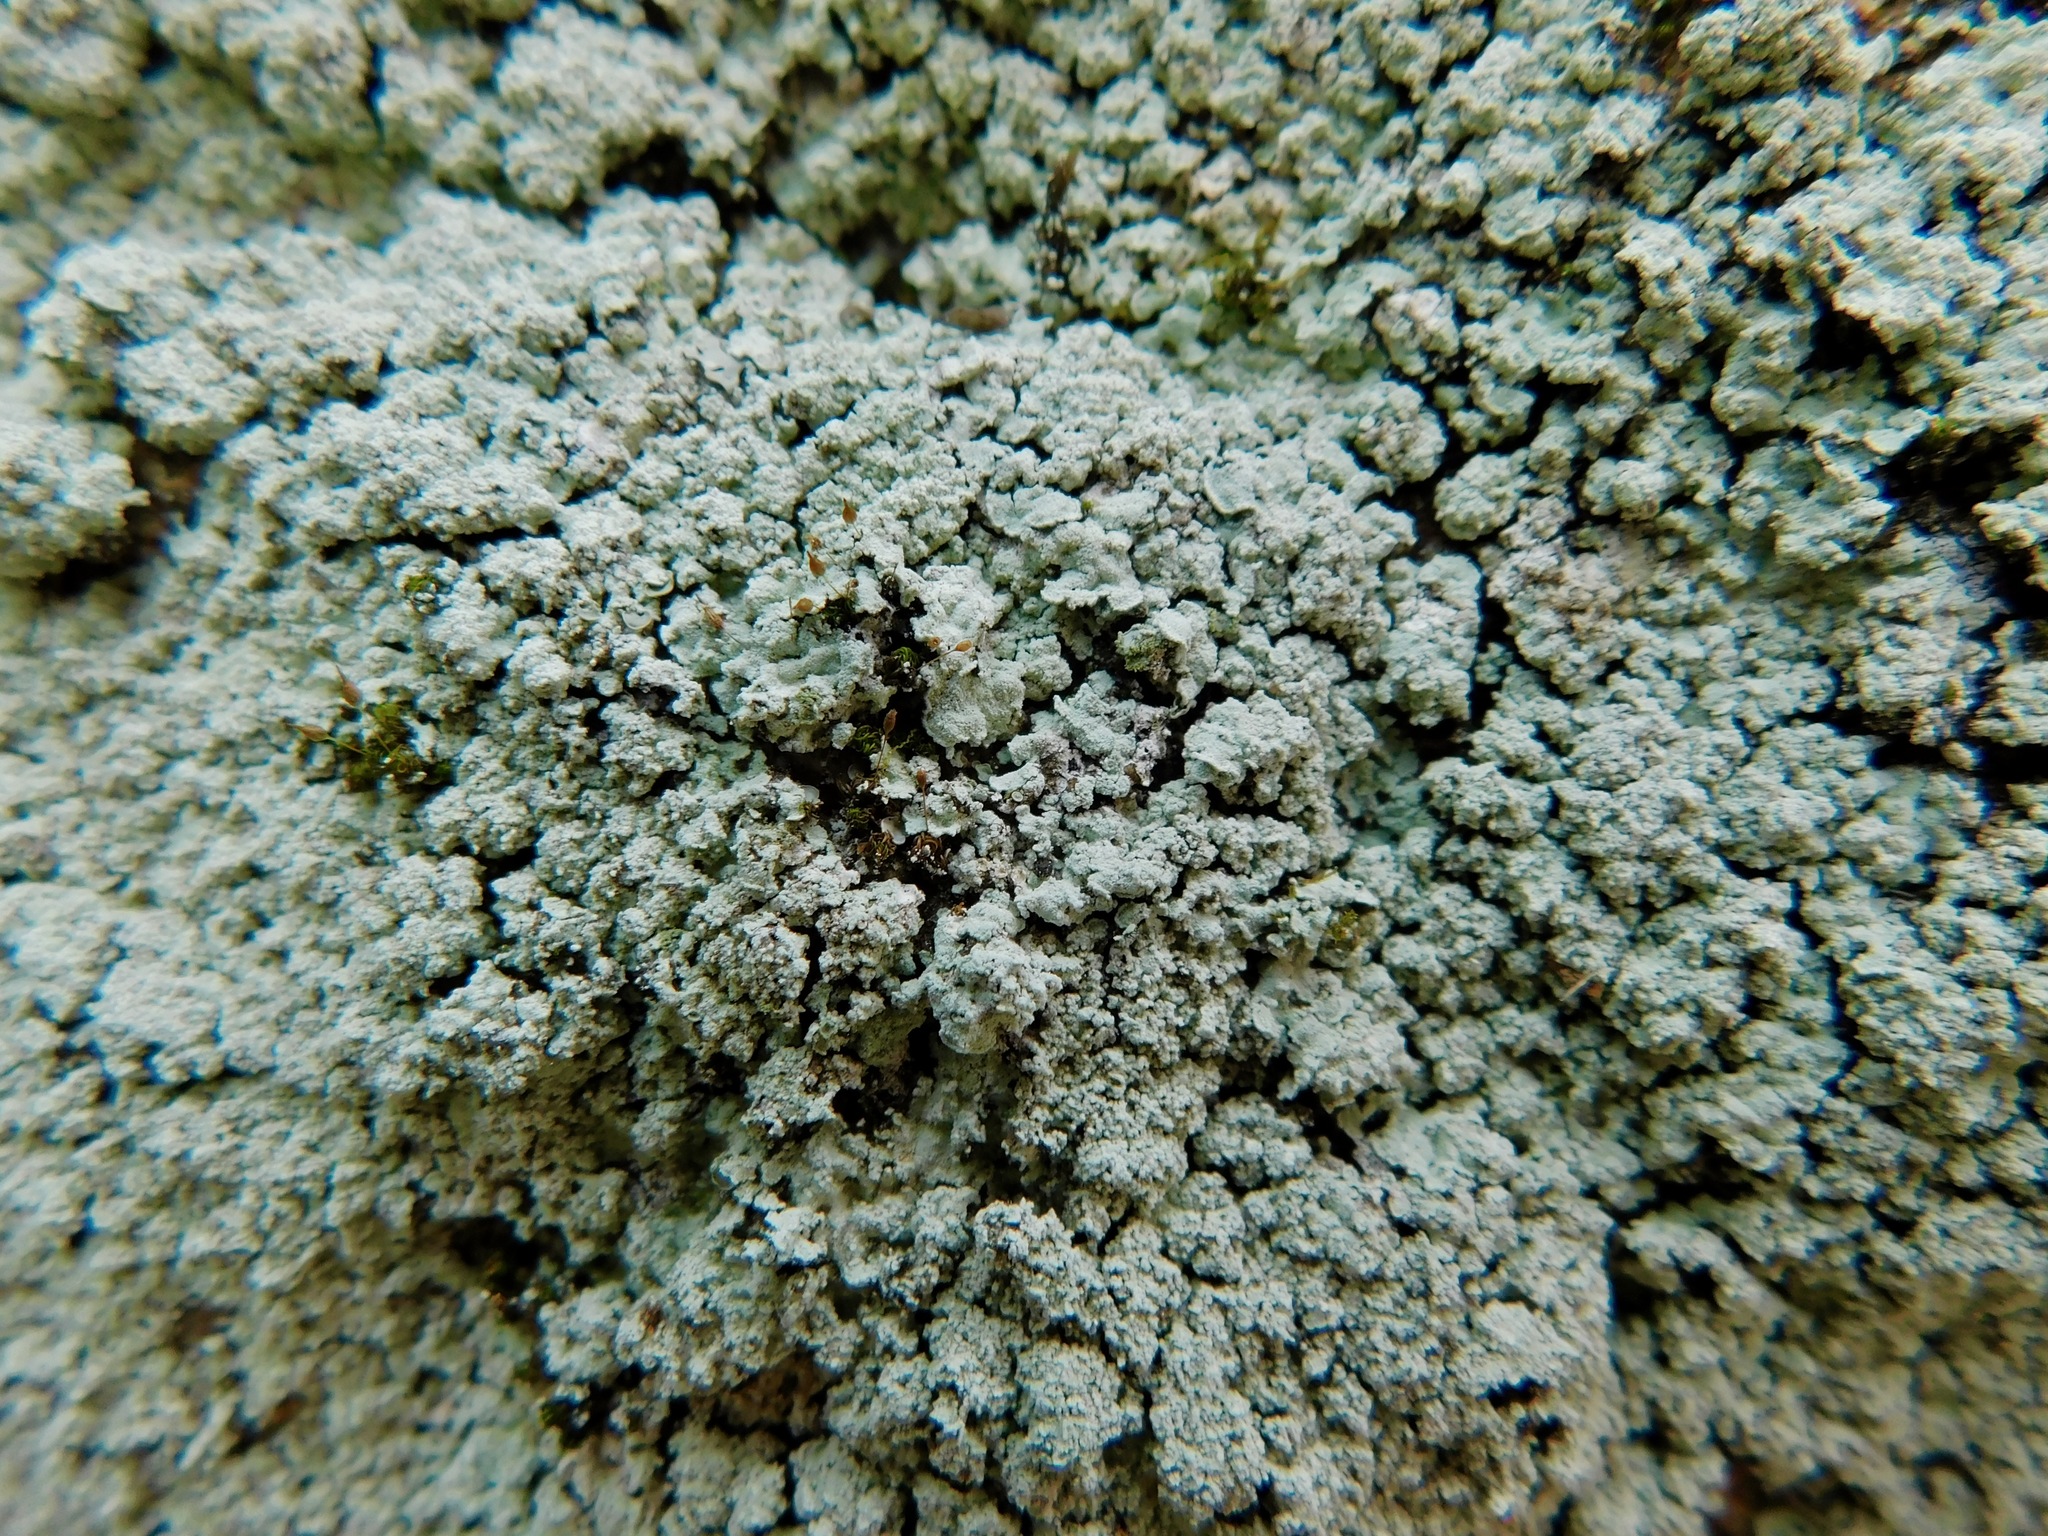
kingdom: Fungi
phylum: Ascomycota
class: Lecanoromycetes
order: Lecanorales
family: Stereocaulaceae
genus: Lepraria
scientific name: Lepraria cryophila
